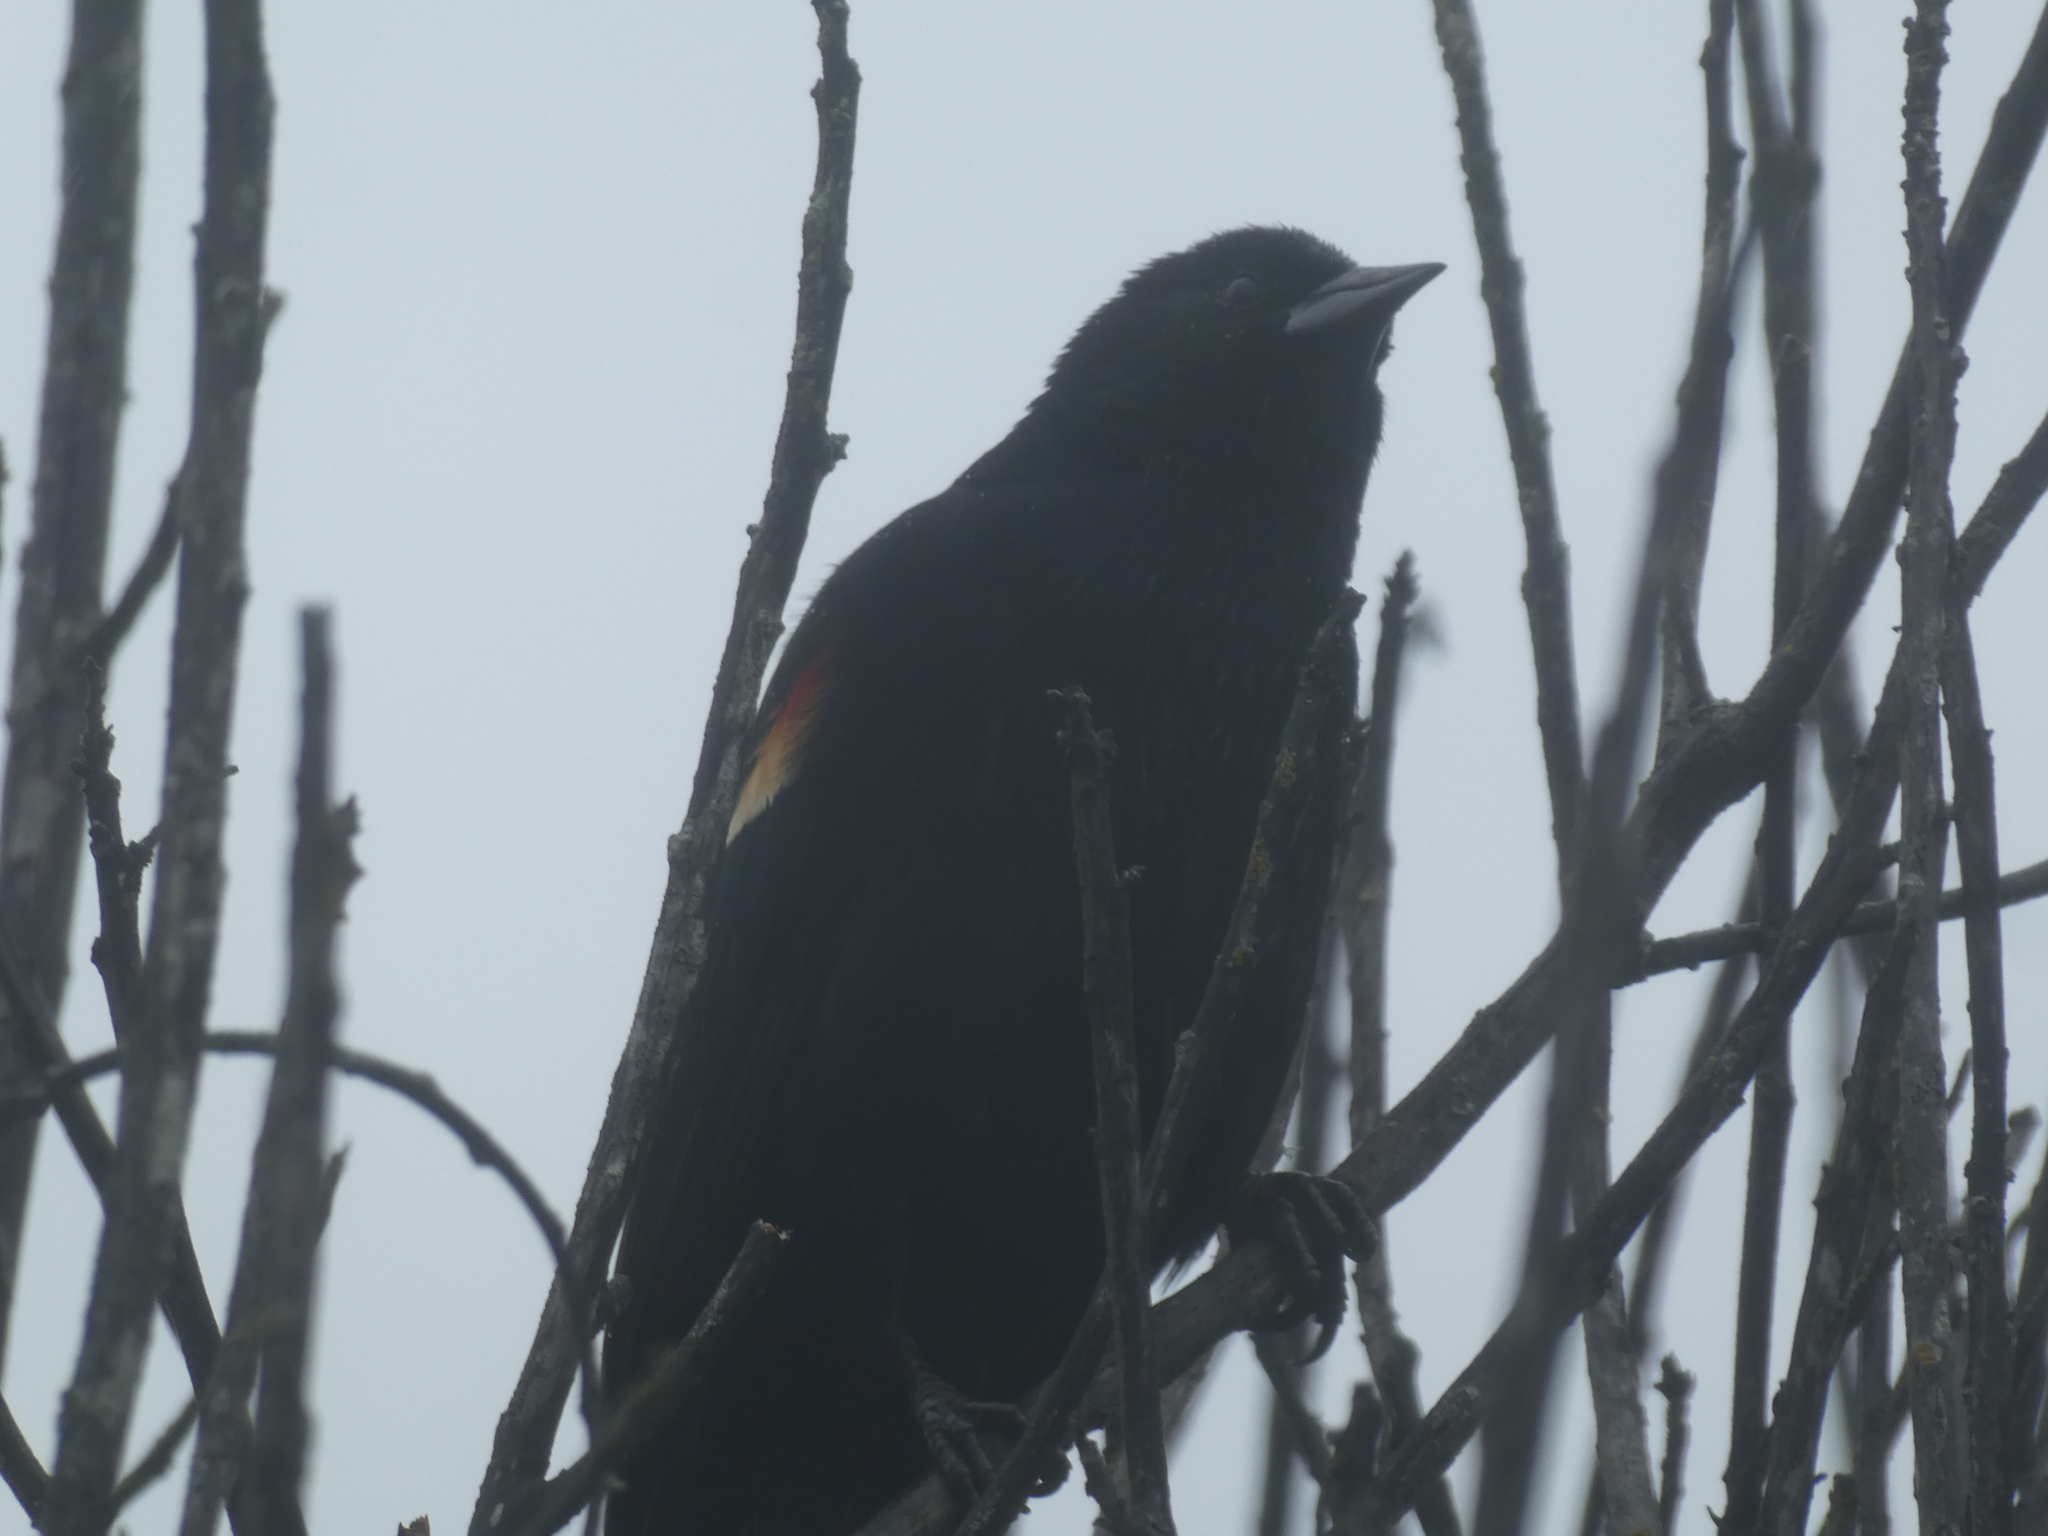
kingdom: Animalia
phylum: Chordata
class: Aves
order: Passeriformes
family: Icteridae
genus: Agelaius
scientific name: Agelaius phoeniceus
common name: Red-winged blackbird
